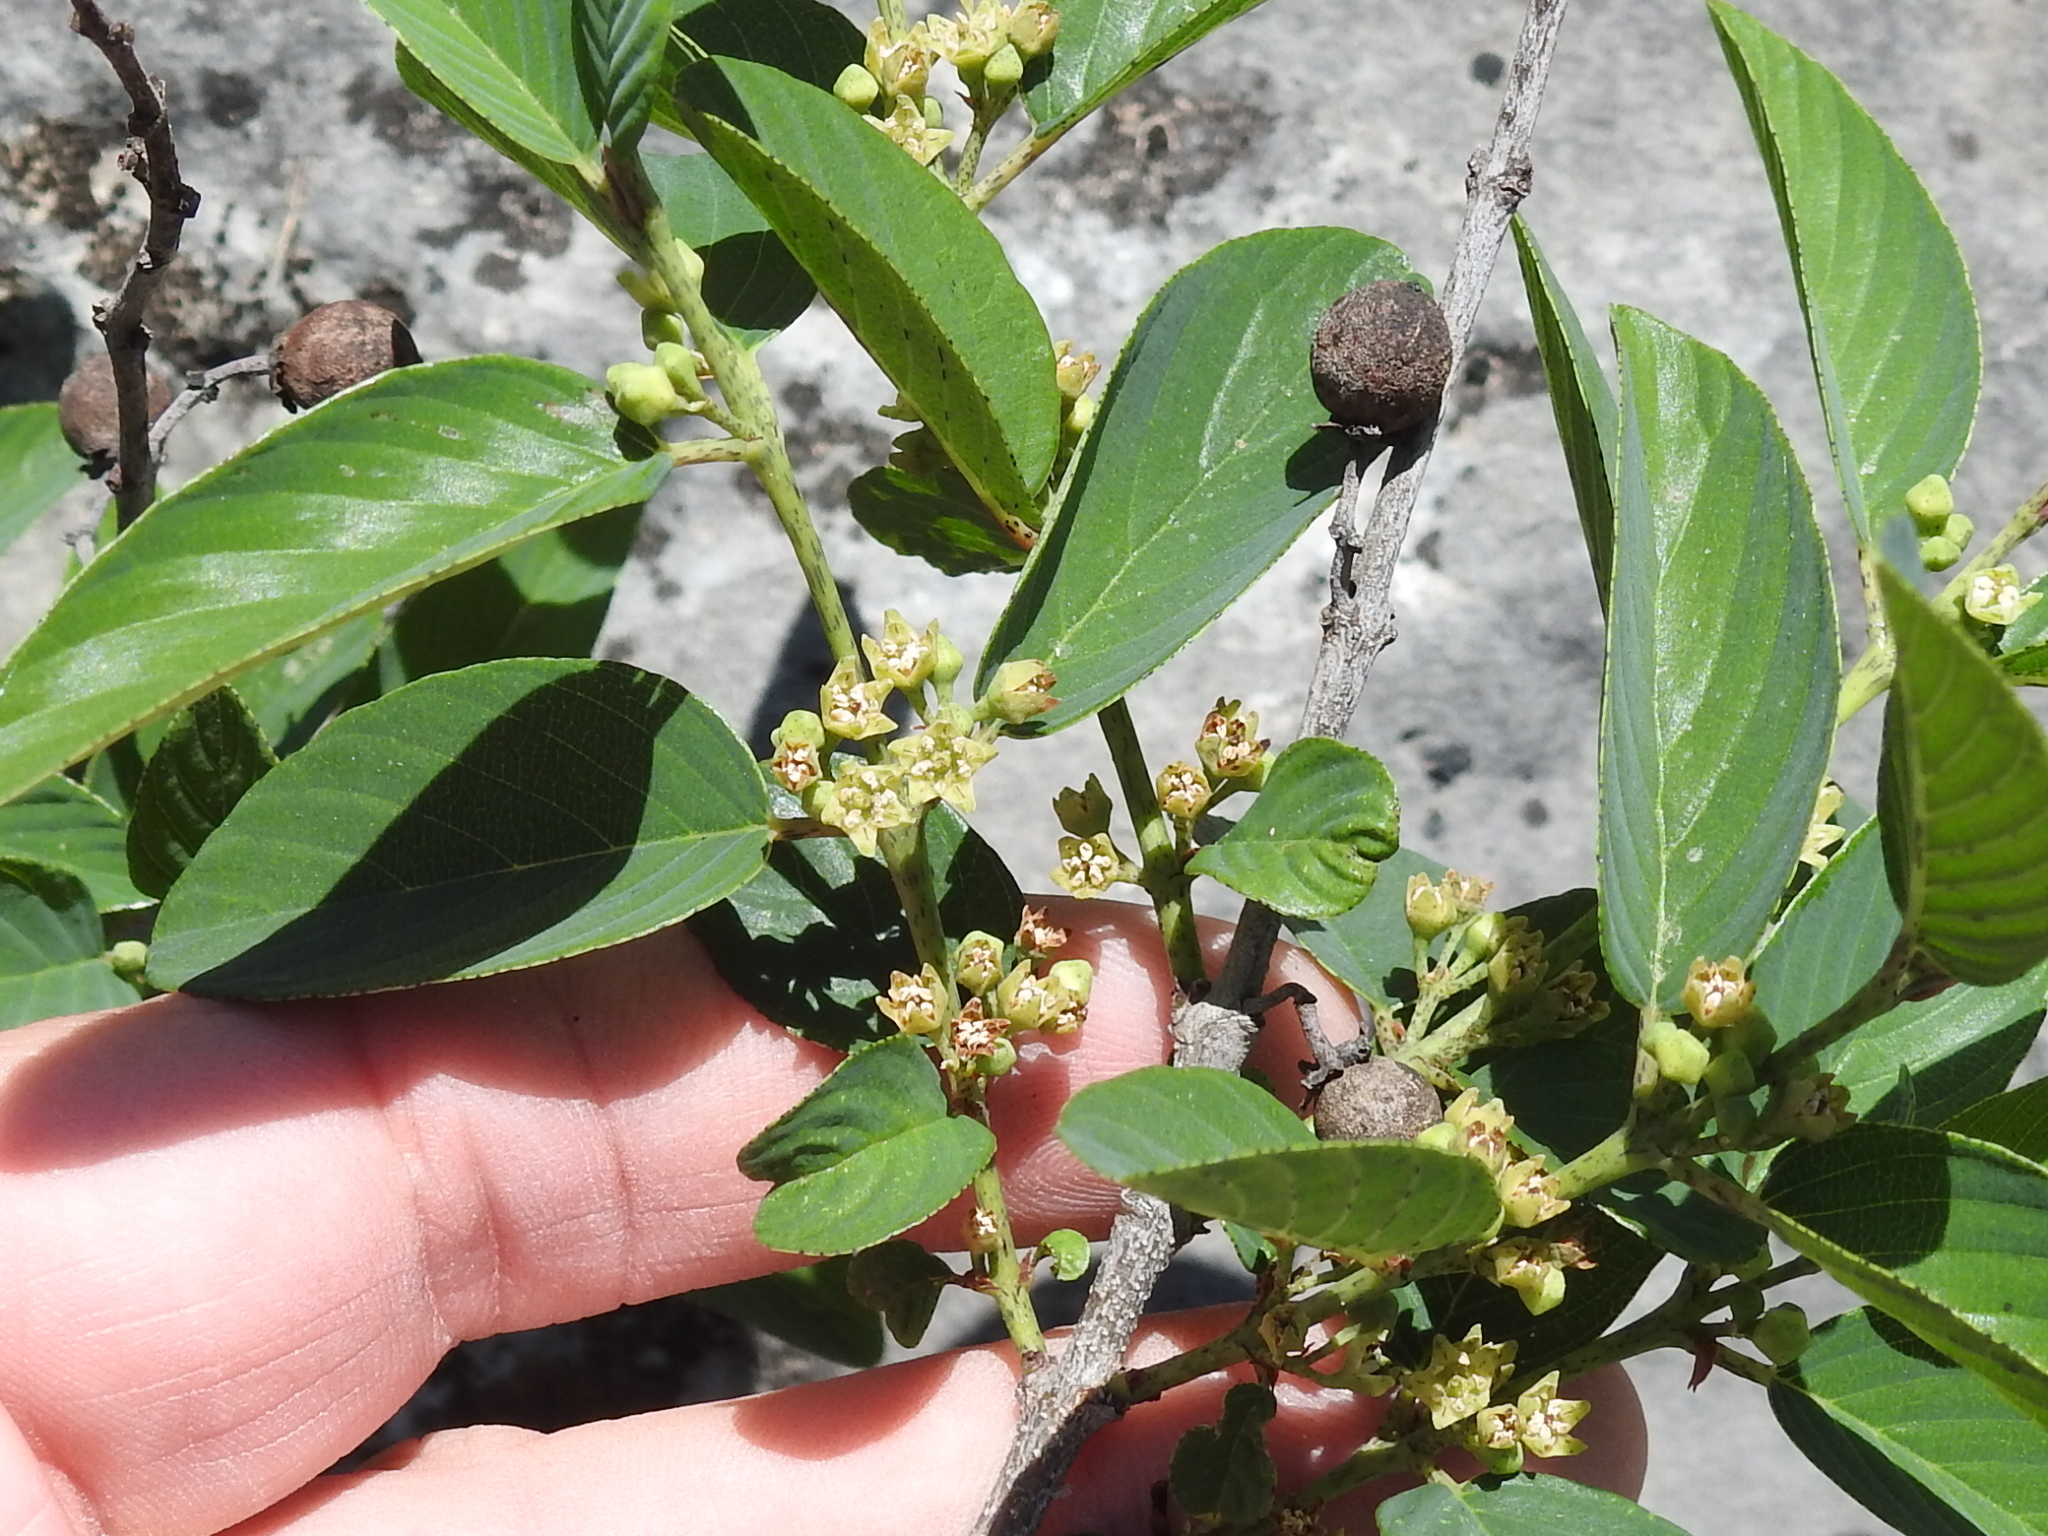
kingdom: Plantae
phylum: Tracheophyta
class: Magnoliopsida
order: Rosales
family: Rhamnaceae
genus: Karwinskia
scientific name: Karwinskia humboldtiana
